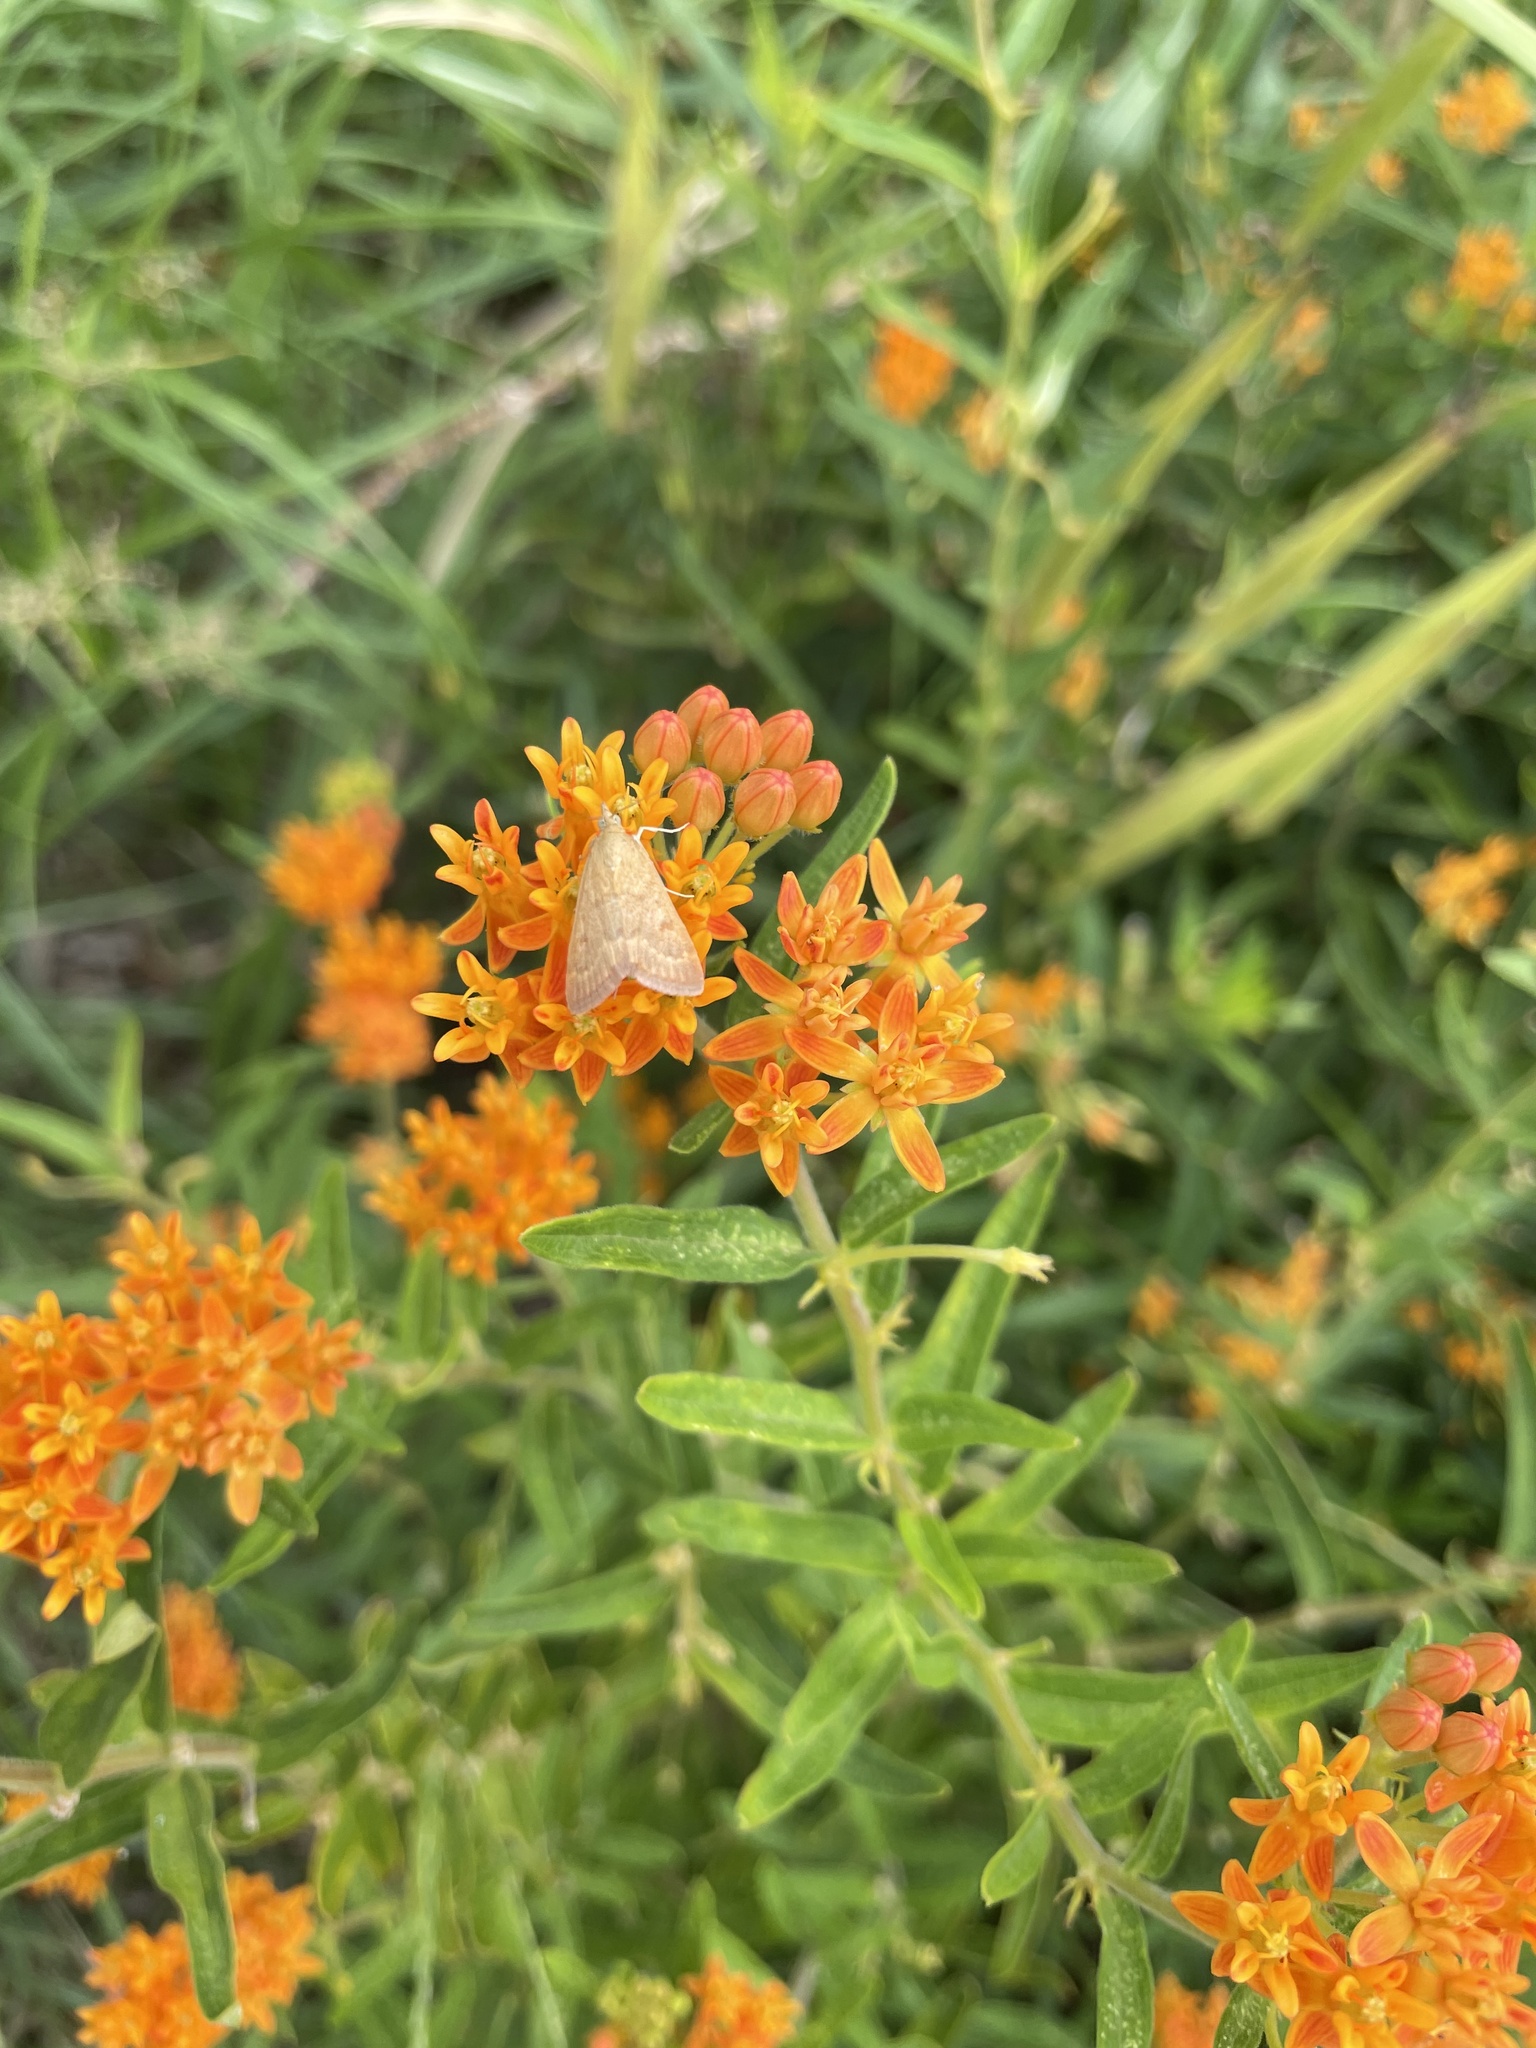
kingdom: Animalia
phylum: Arthropoda
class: Insecta
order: Lepidoptera
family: Crambidae
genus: Achyra
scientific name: Achyra rantalis
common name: Garden webworm
